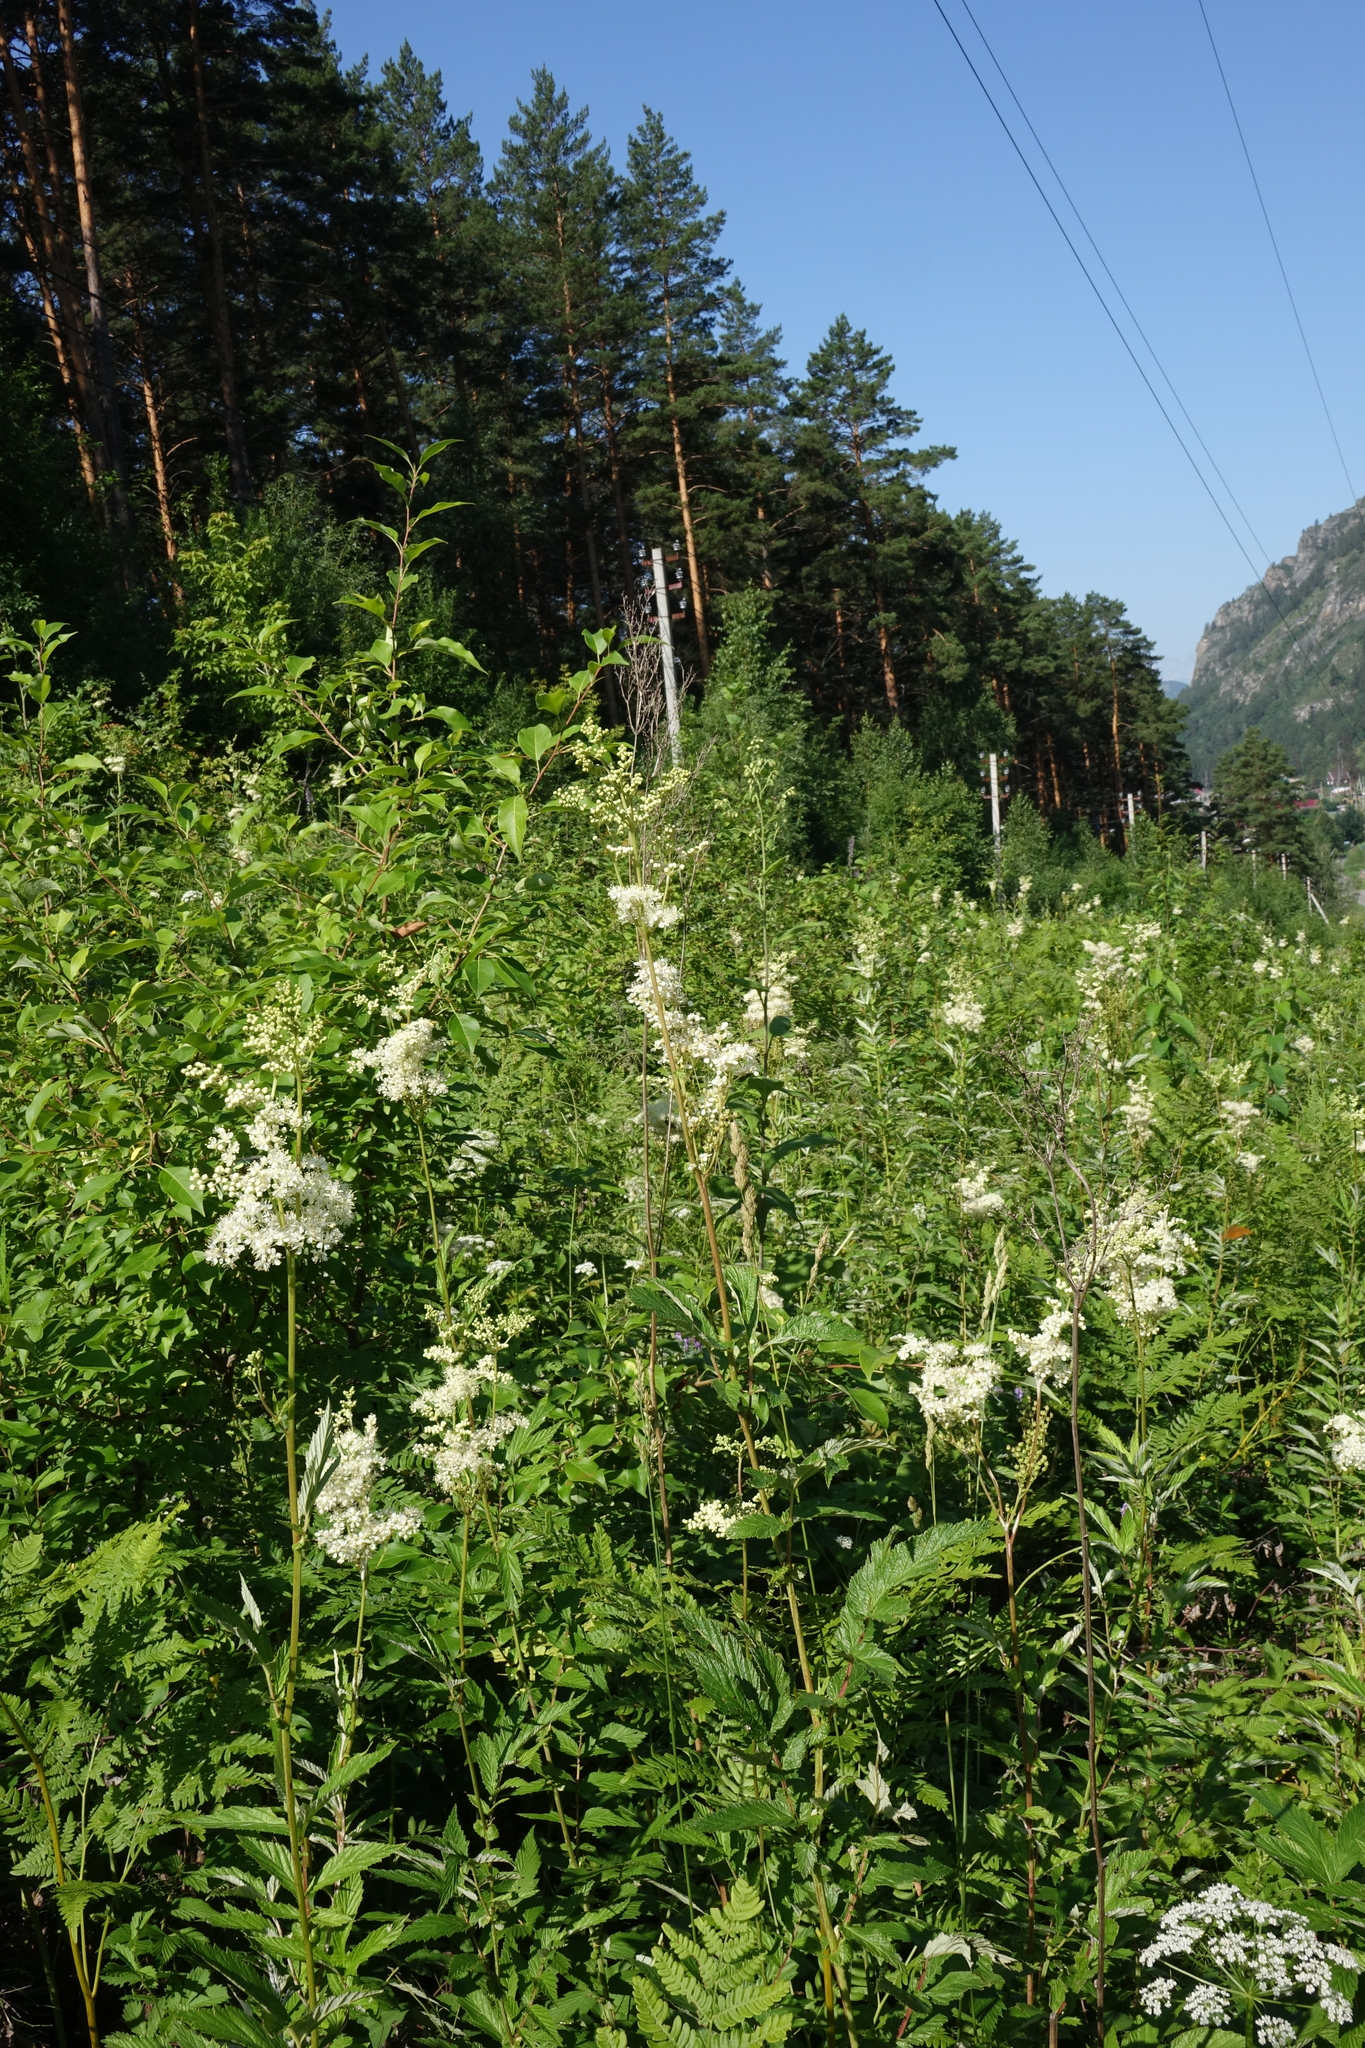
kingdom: Plantae
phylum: Tracheophyta
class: Magnoliopsida
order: Rosales
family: Rosaceae
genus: Filipendula
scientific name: Filipendula ulmaria
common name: Meadowsweet
